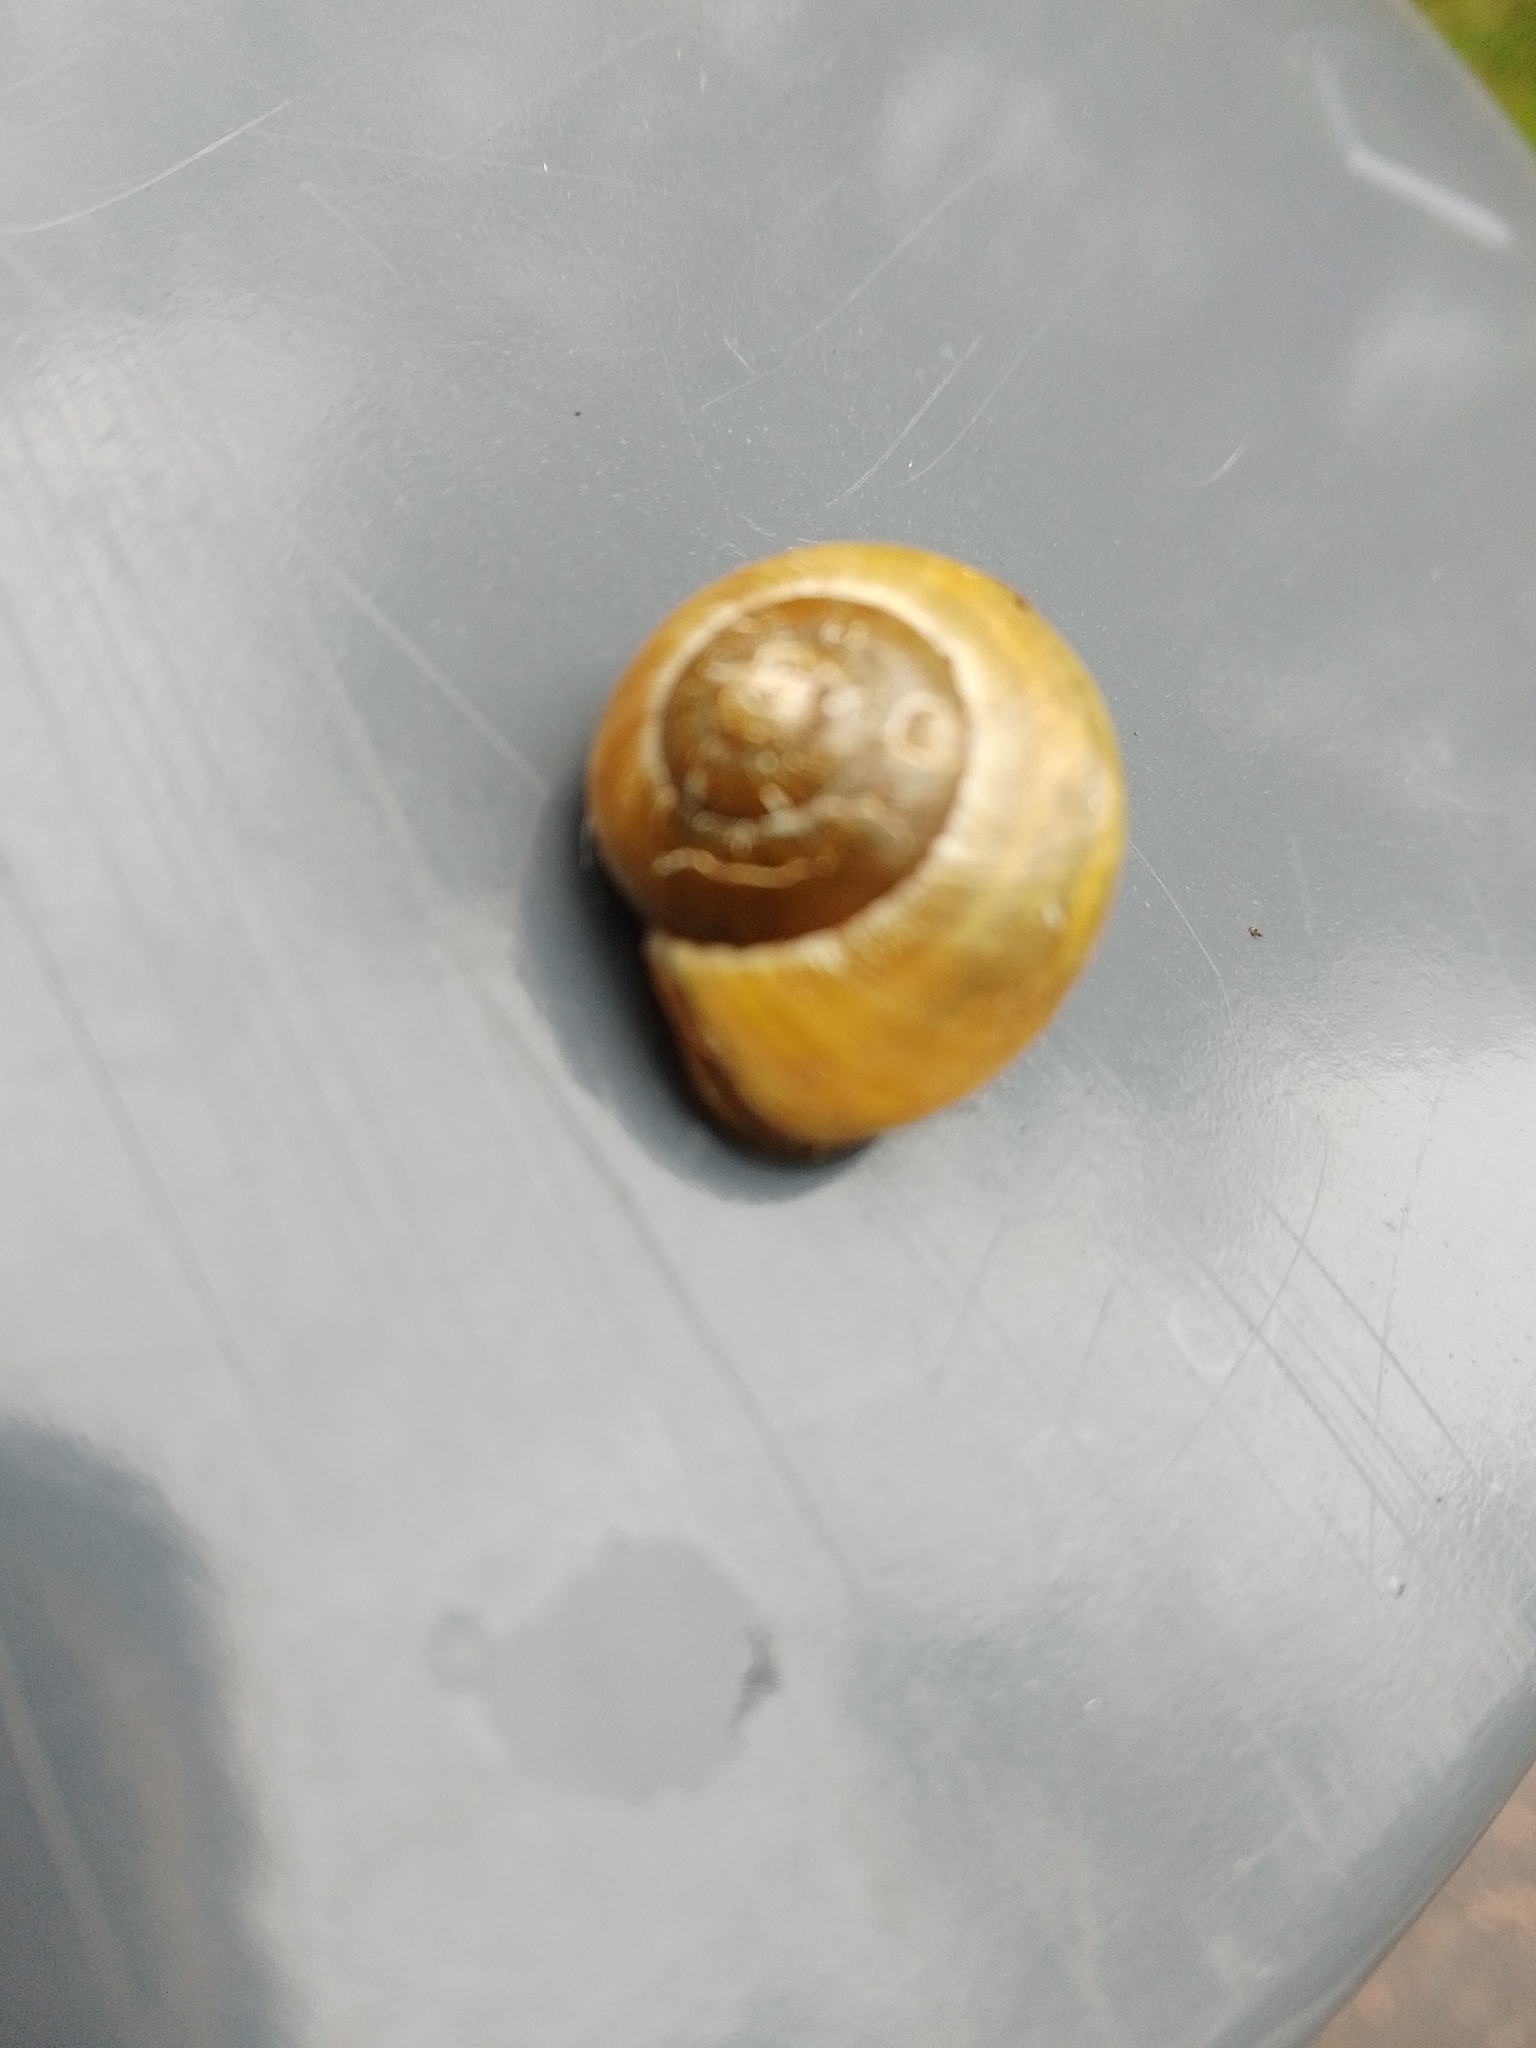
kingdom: Animalia
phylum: Mollusca
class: Gastropoda
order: Stylommatophora
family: Helicidae
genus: Cepaea
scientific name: Cepaea nemoralis
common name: Grovesnail
